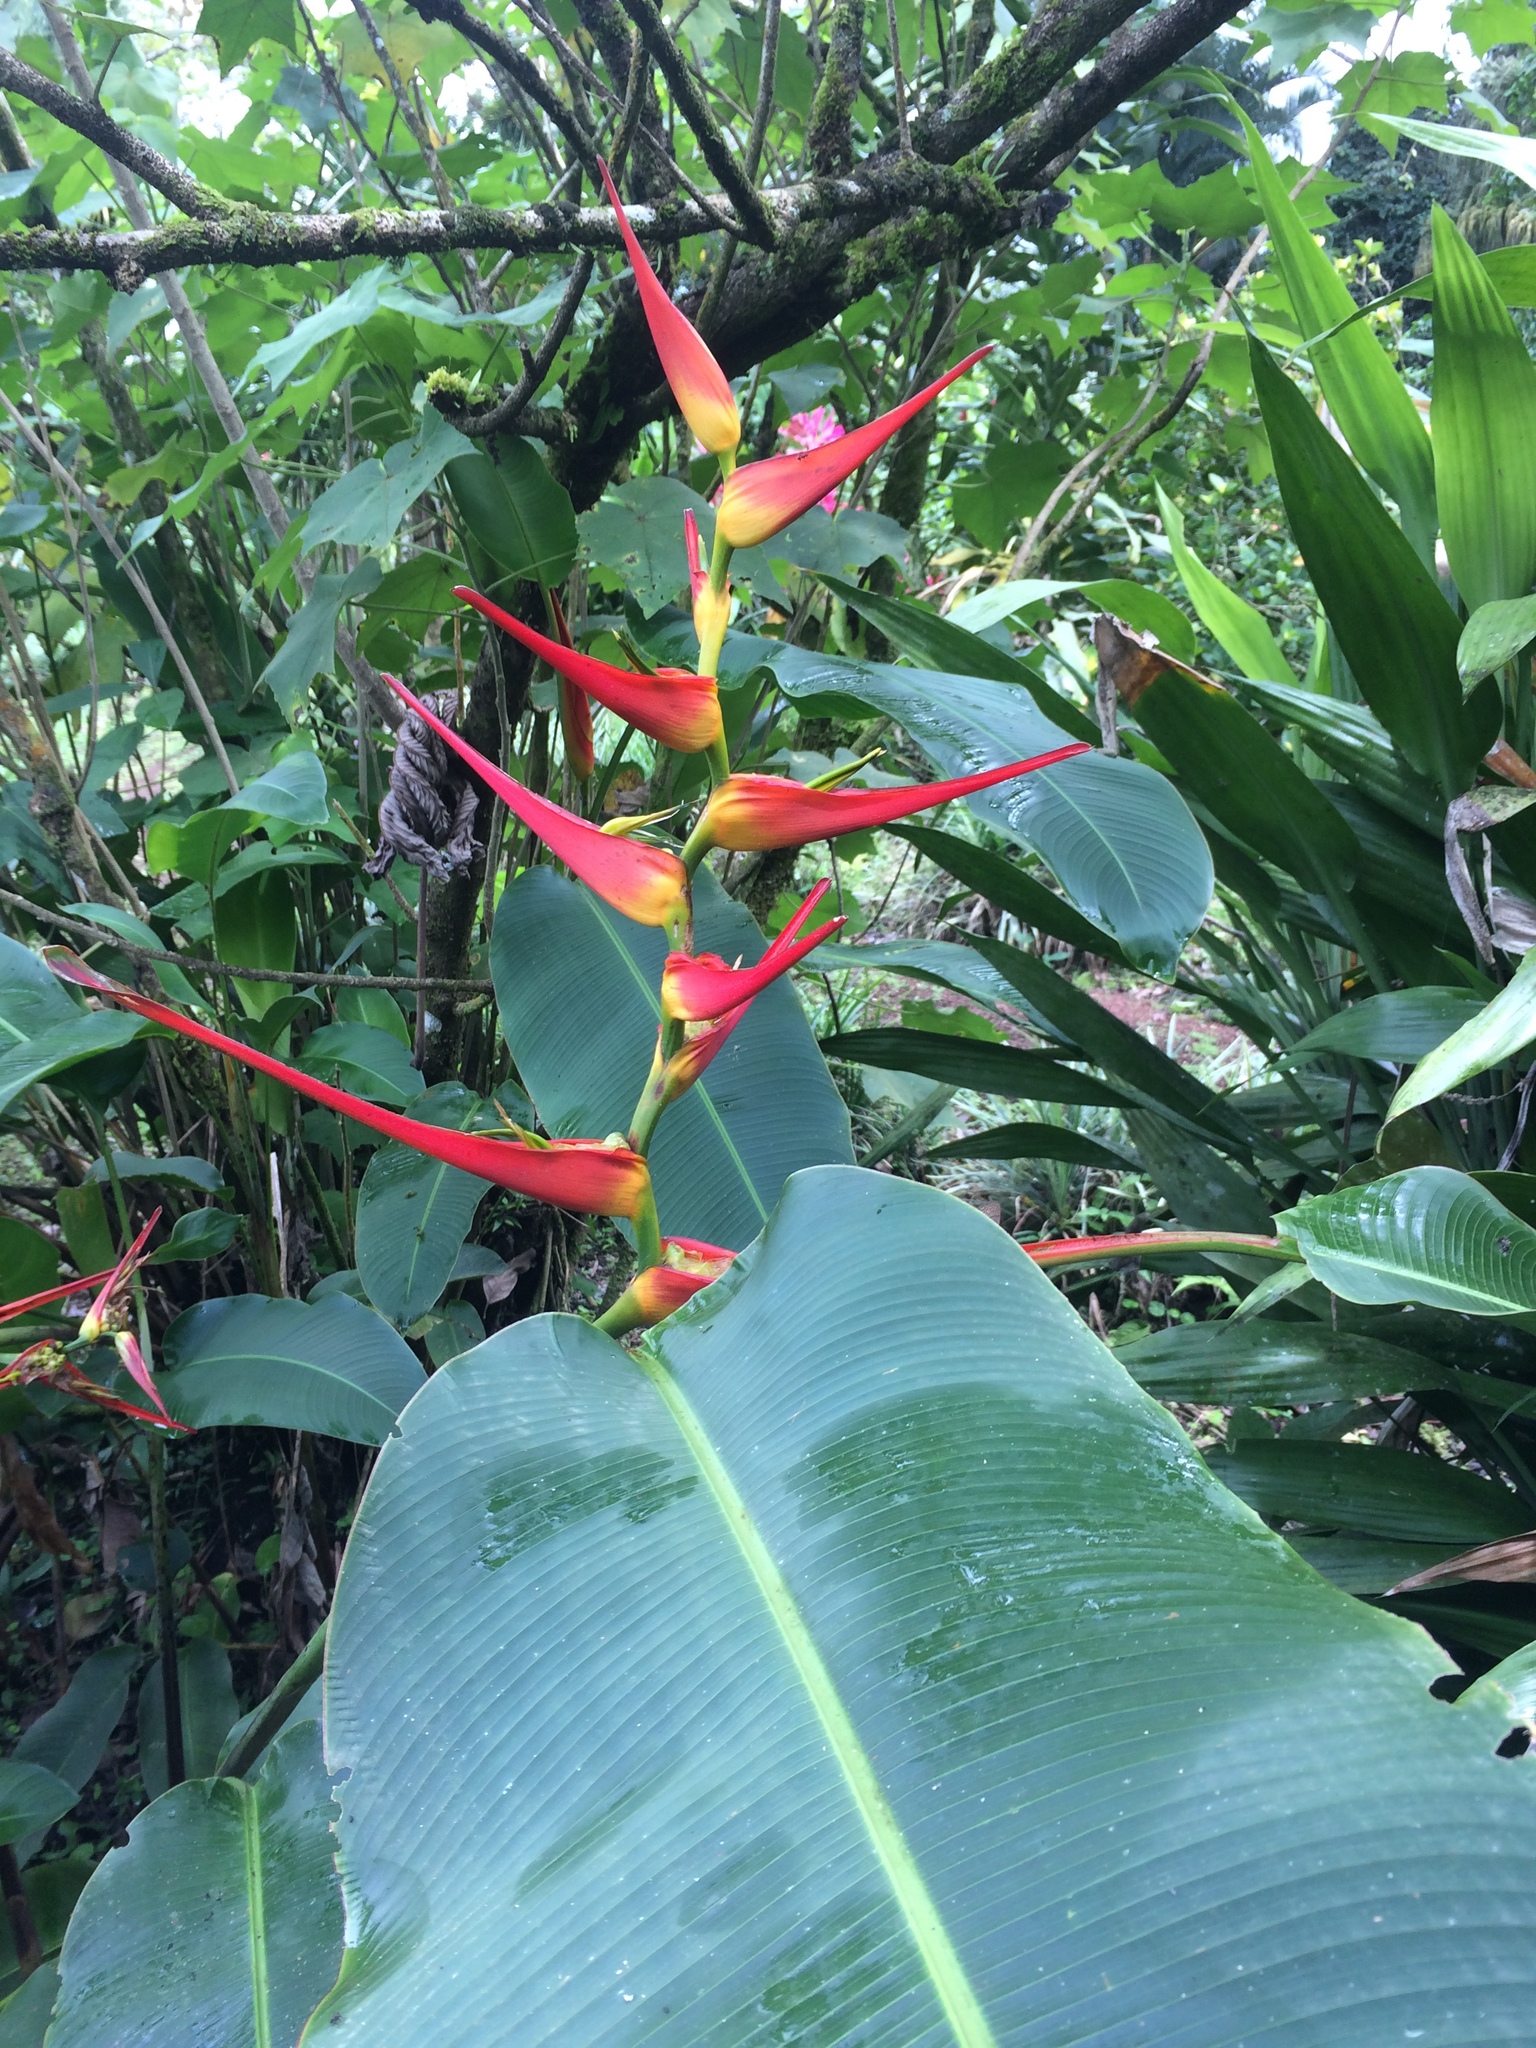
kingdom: Plantae
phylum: Tracheophyta
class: Liliopsida
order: Zingiberales
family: Heliconiaceae
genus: Heliconia
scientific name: Heliconia latispatha
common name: Expanded lobsterclaw
